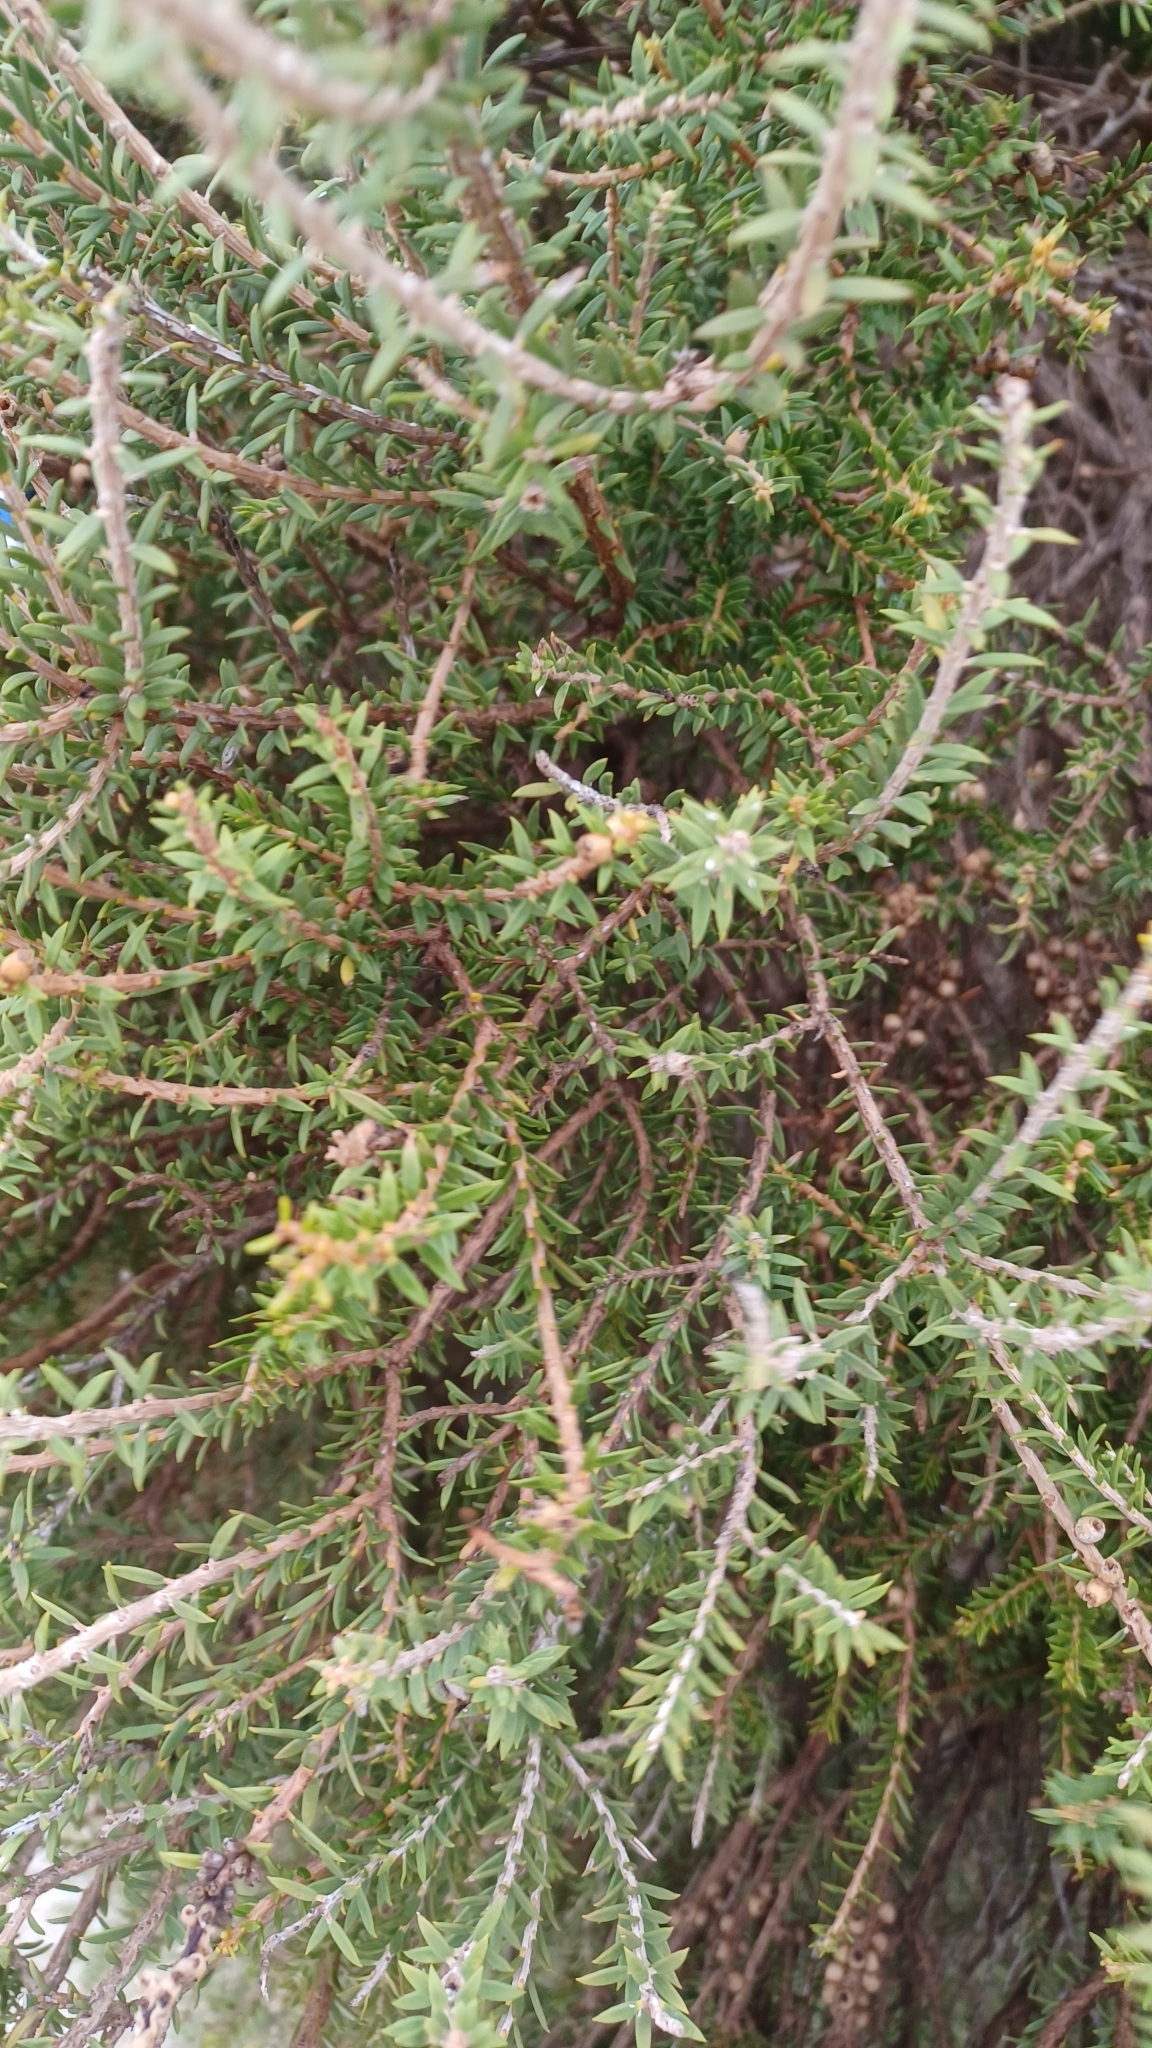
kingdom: Plantae
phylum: Tracheophyta
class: Magnoliopsida
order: Myrtales
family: Myrtaceae
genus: Melaleuca
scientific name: Melaleuca lanceolata
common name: Rottnest island teatree
